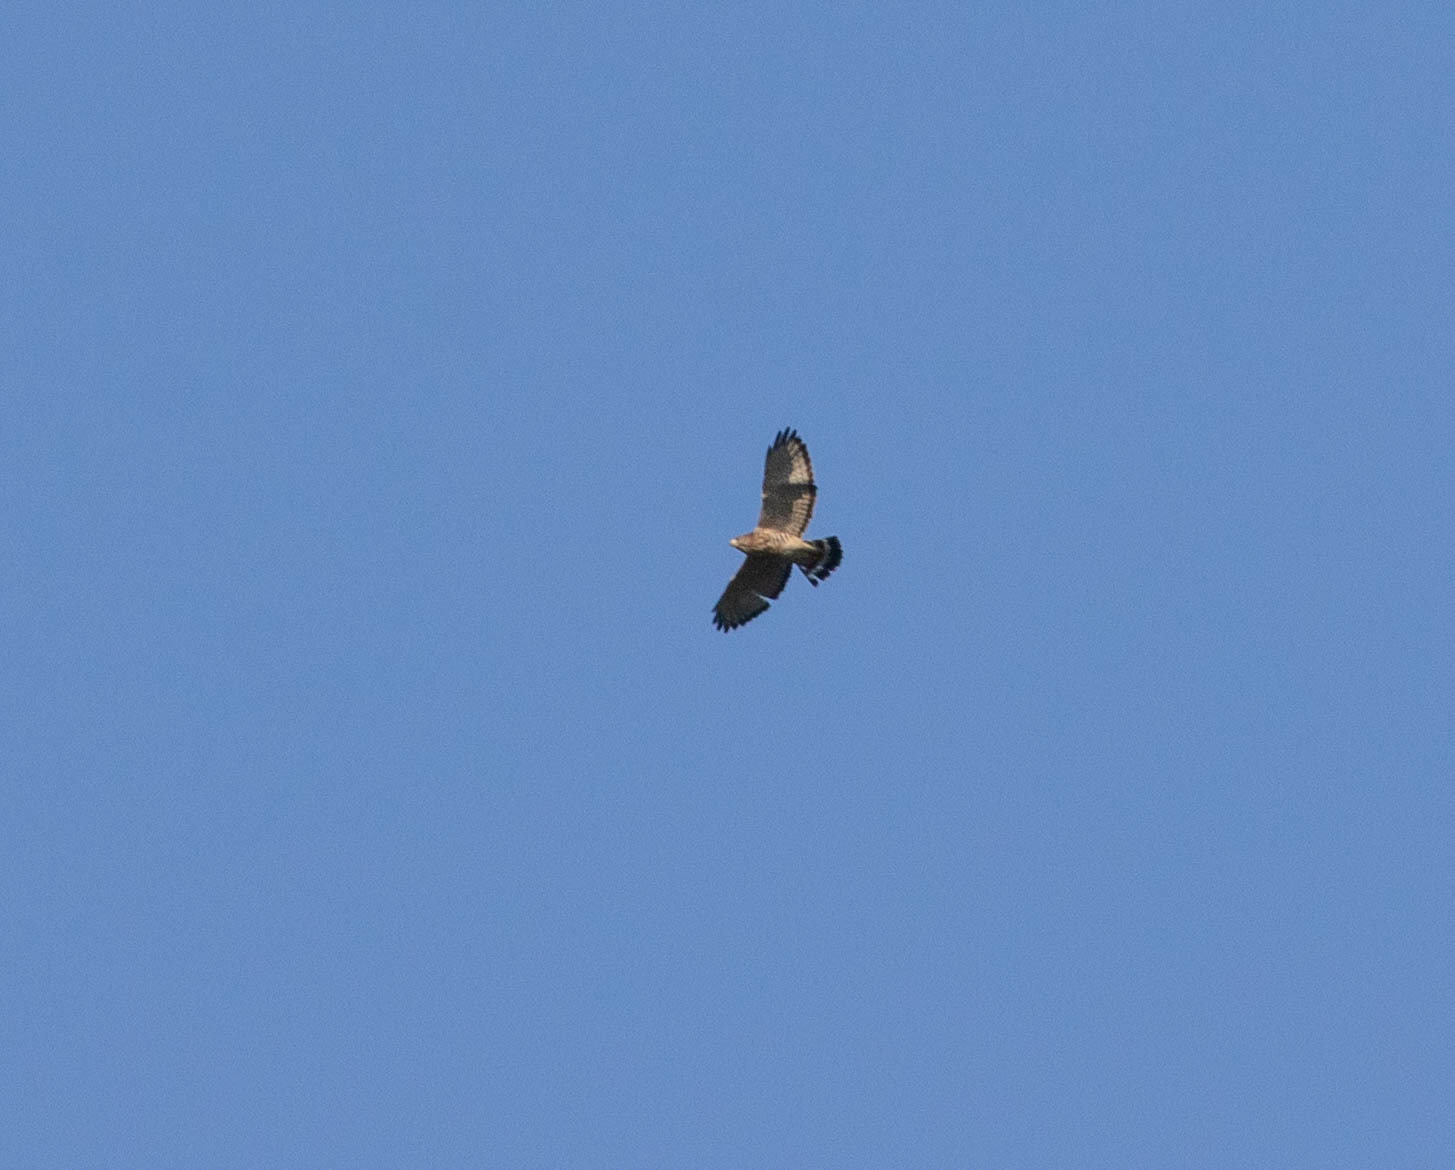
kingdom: Animalia
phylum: Chordata
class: Aves
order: Accipitriformes
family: Accipitridae
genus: Buteo
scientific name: Buteo platypterus
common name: Broad-winged hawk
